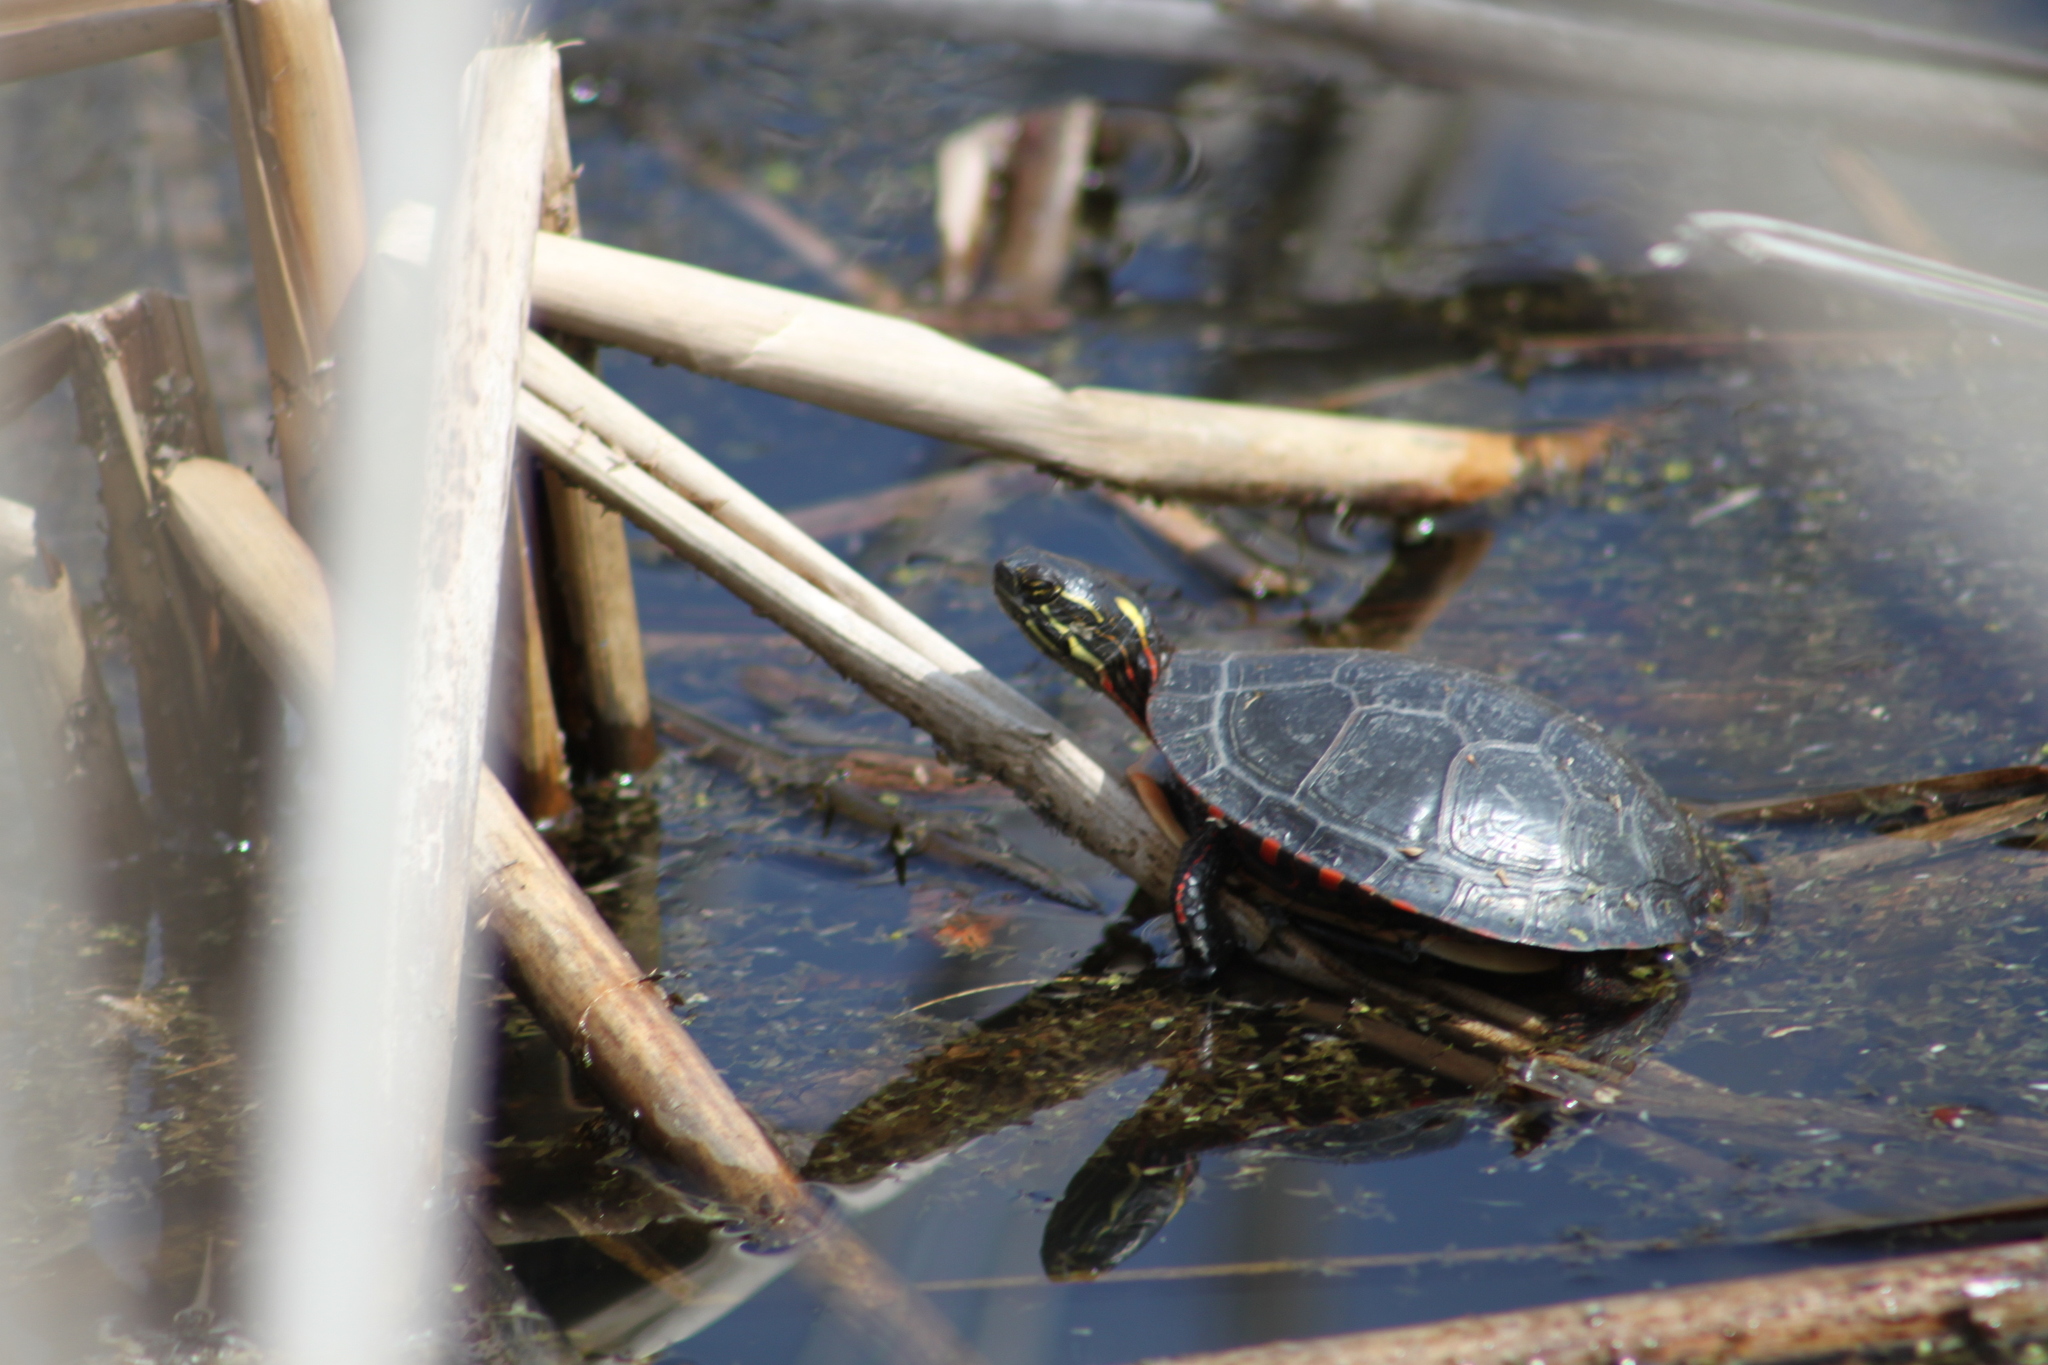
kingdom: Animalia
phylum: Chordata
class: Testudines
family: Emydidae
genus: Chrysemys
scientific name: Chrysemys picta
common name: Painted turtle
